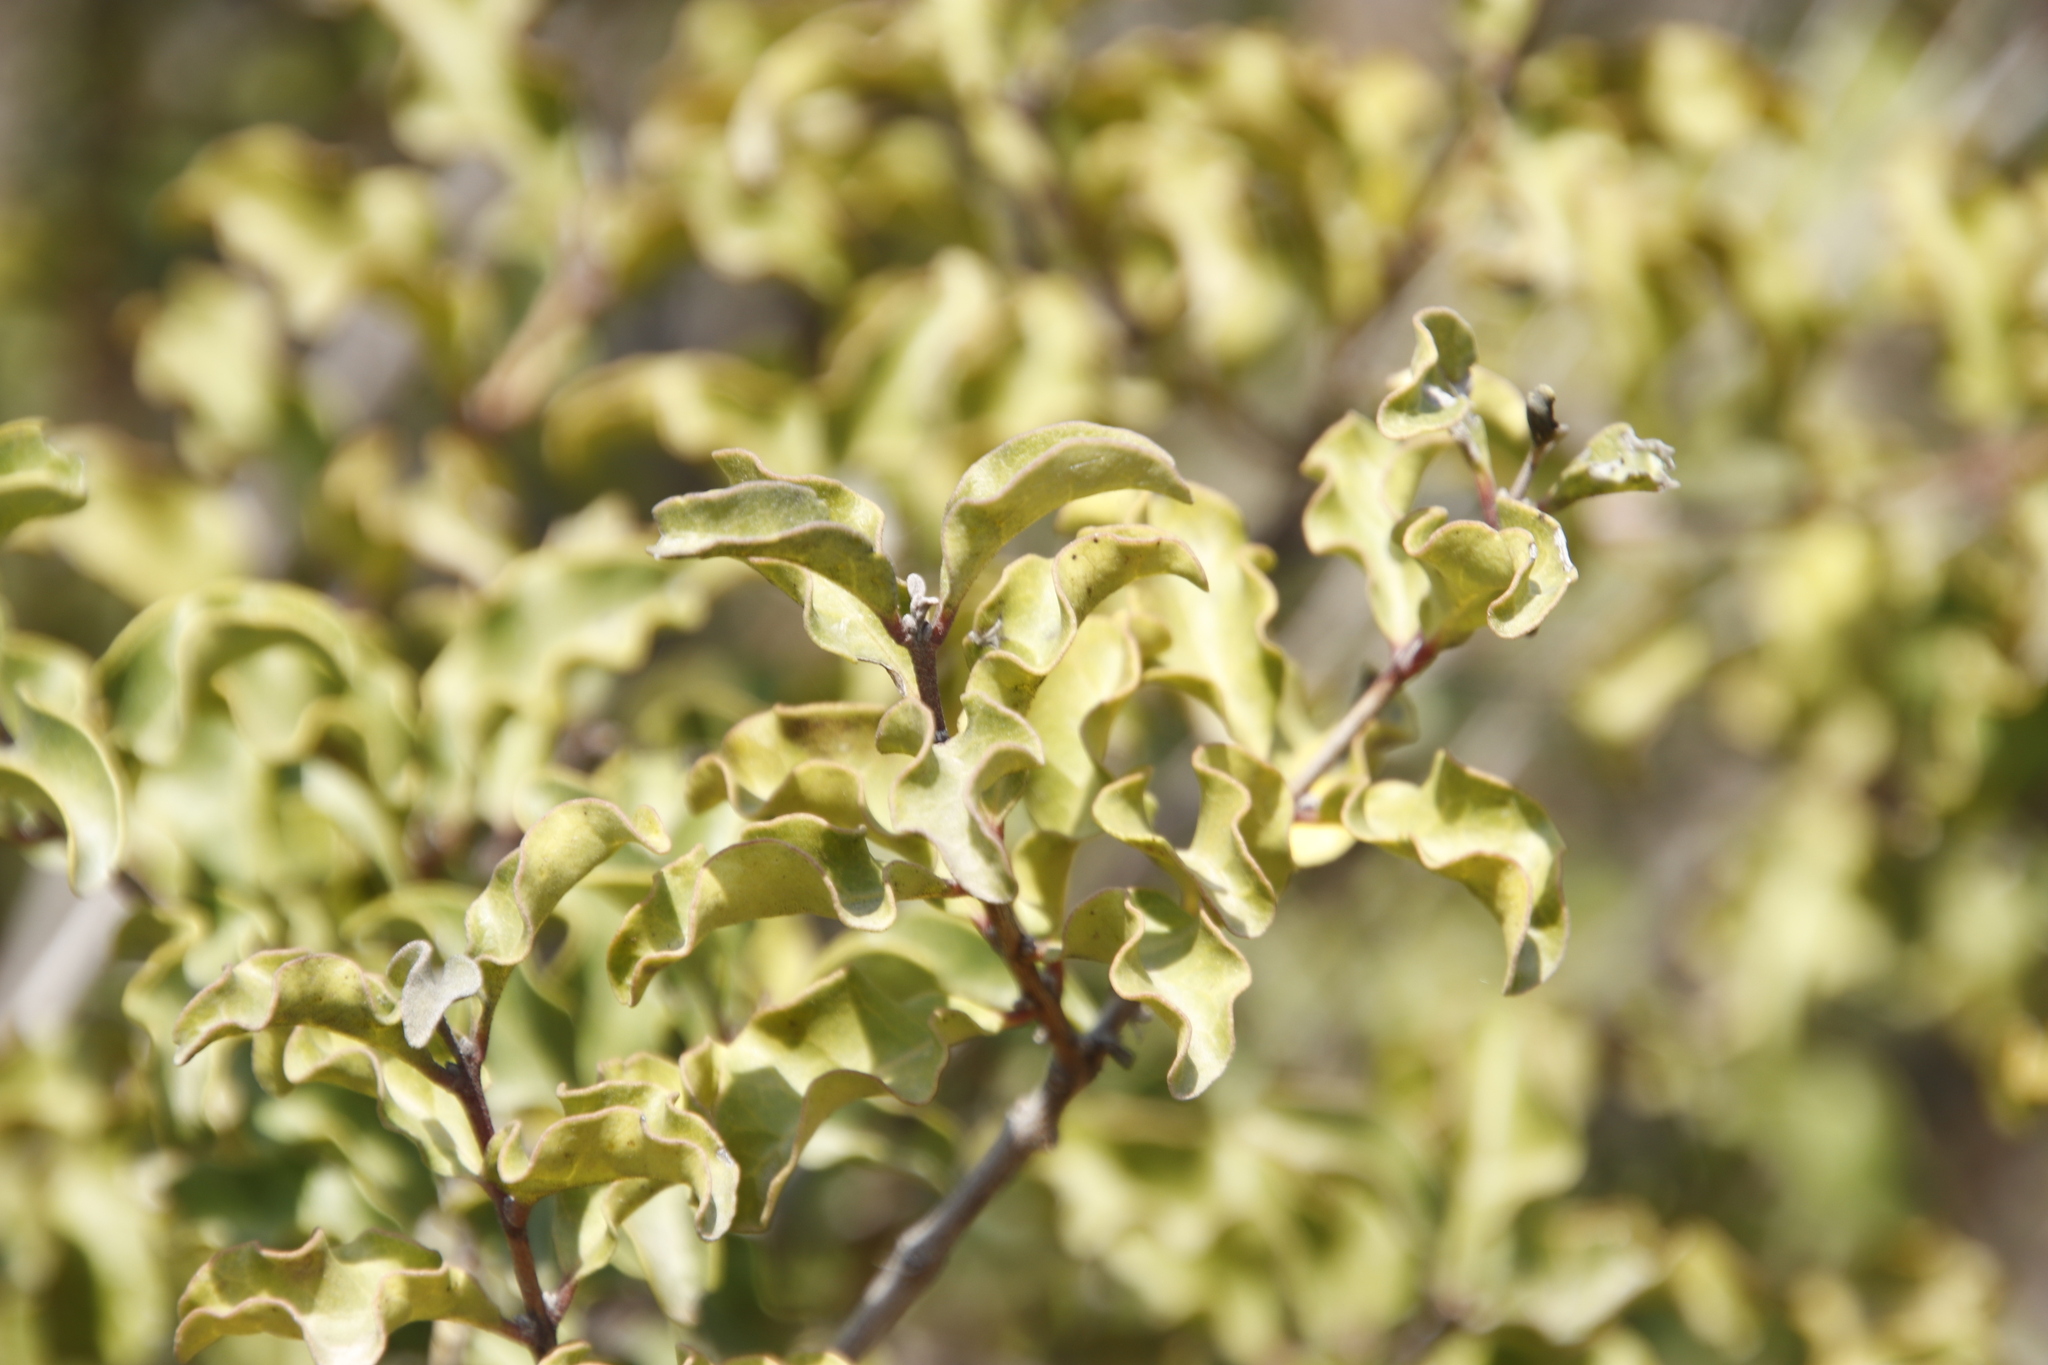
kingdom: Plantae
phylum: Tracheophyta
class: Magnoliopsida
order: Ericales
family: Ebenaceae
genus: Euclea
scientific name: Euclea undulata
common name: Small-leaved guarri
